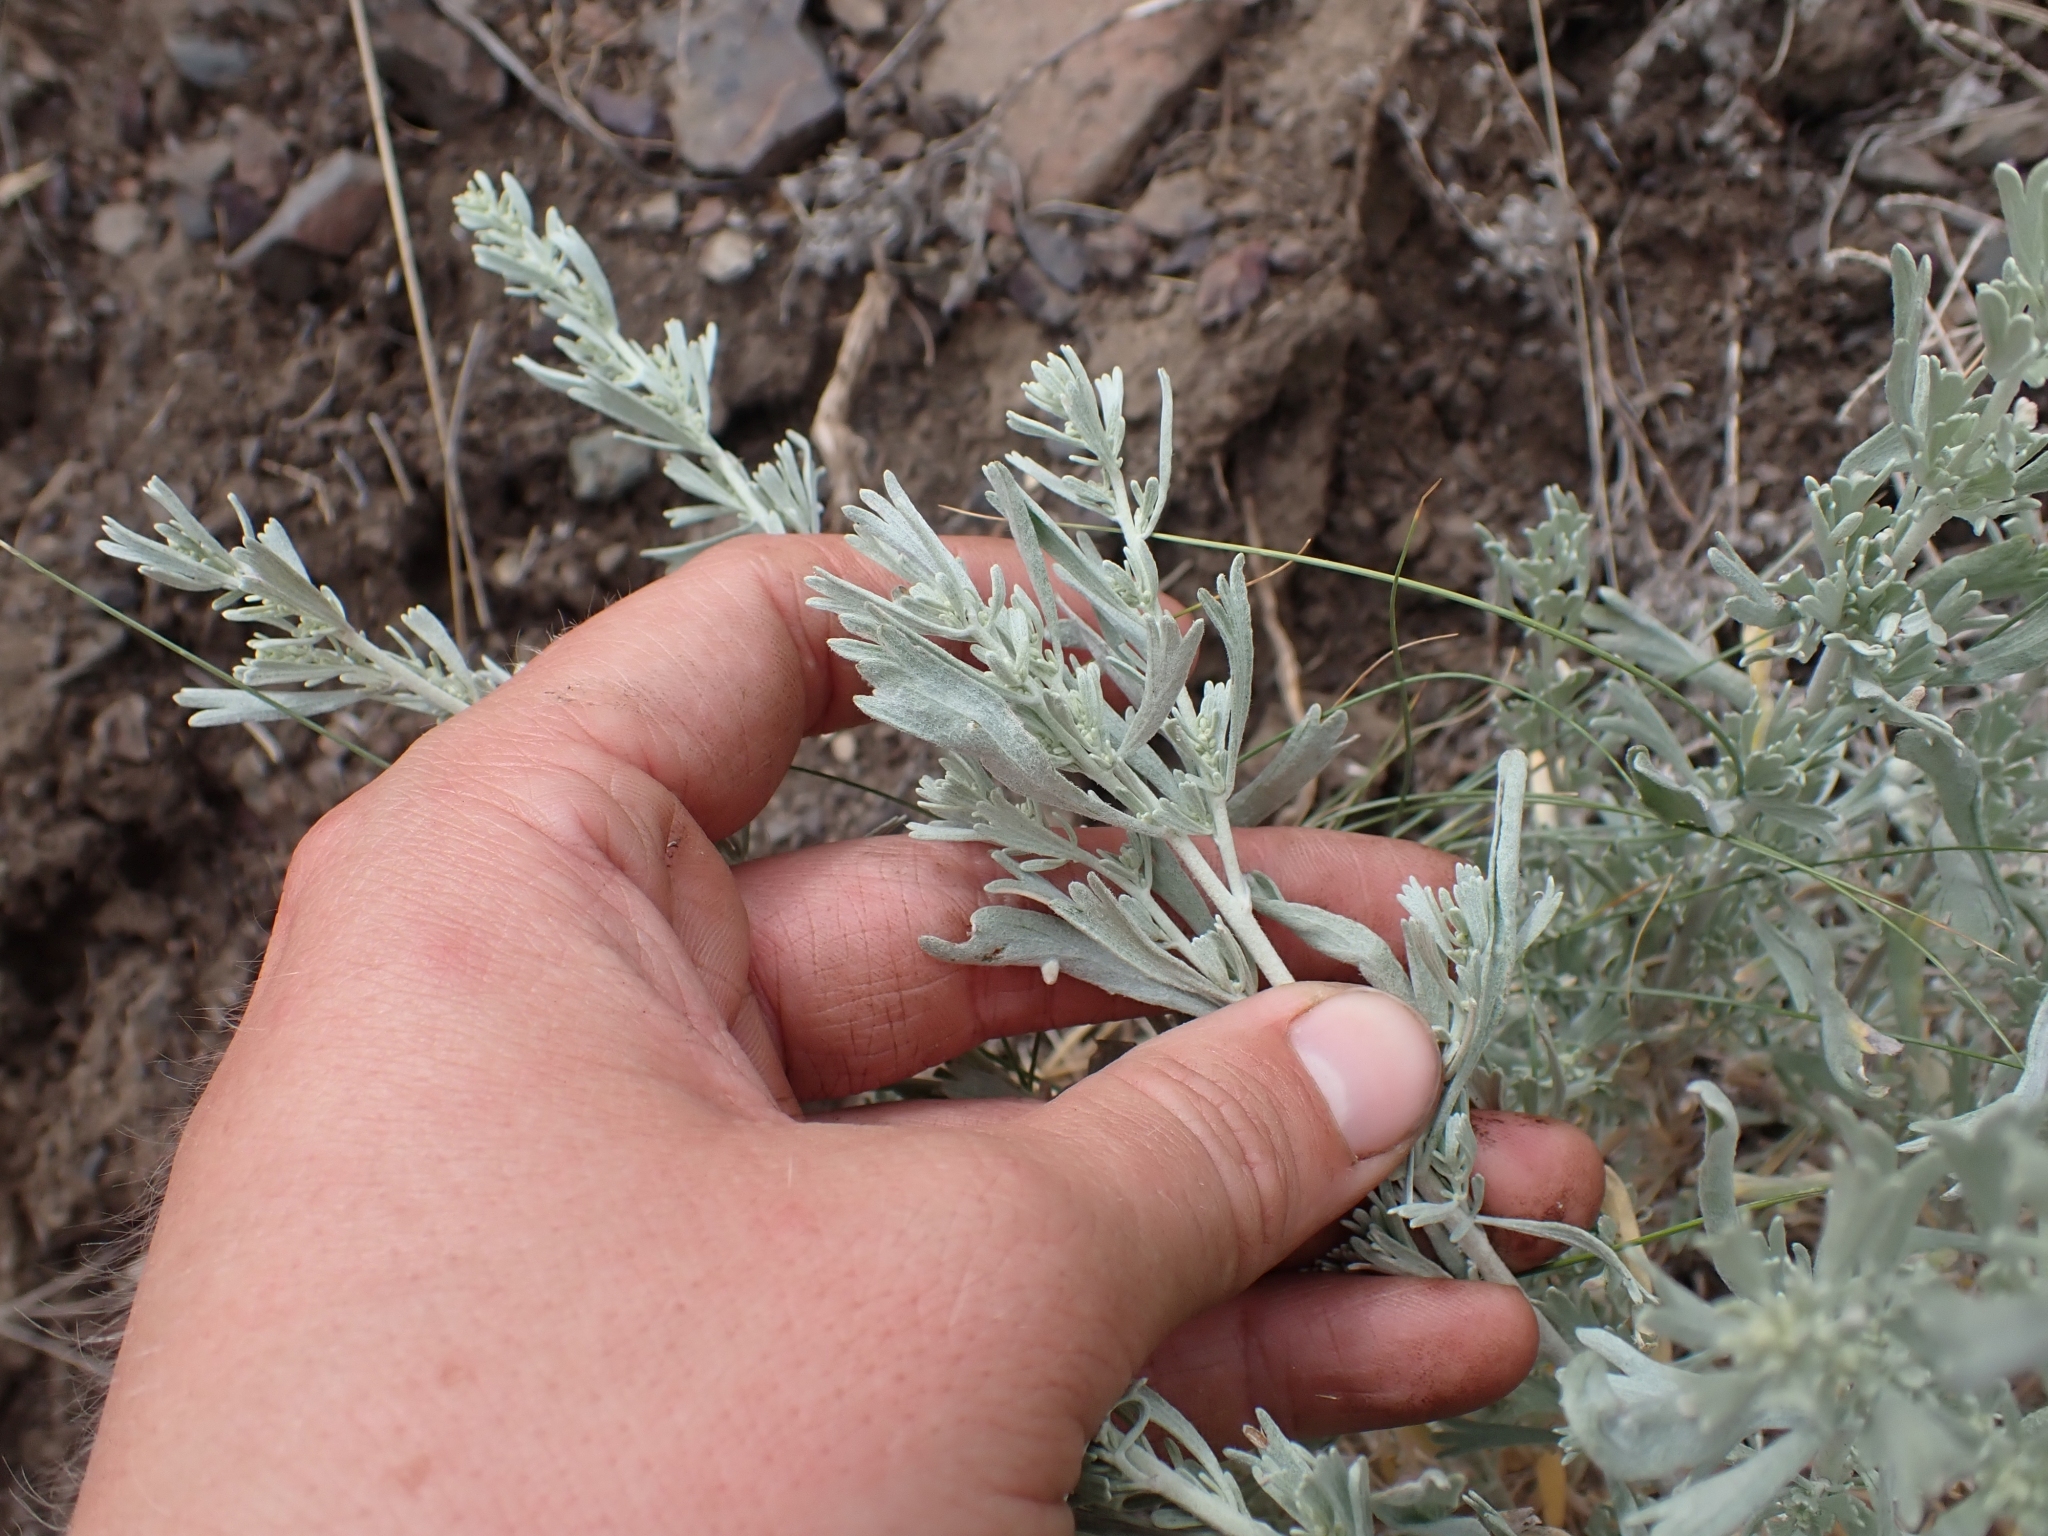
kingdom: Plantae
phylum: Tracheophyta
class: Magnoliopsida
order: Asterales
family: Asteraceae
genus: Artemisia
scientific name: Artemisia tridentata
